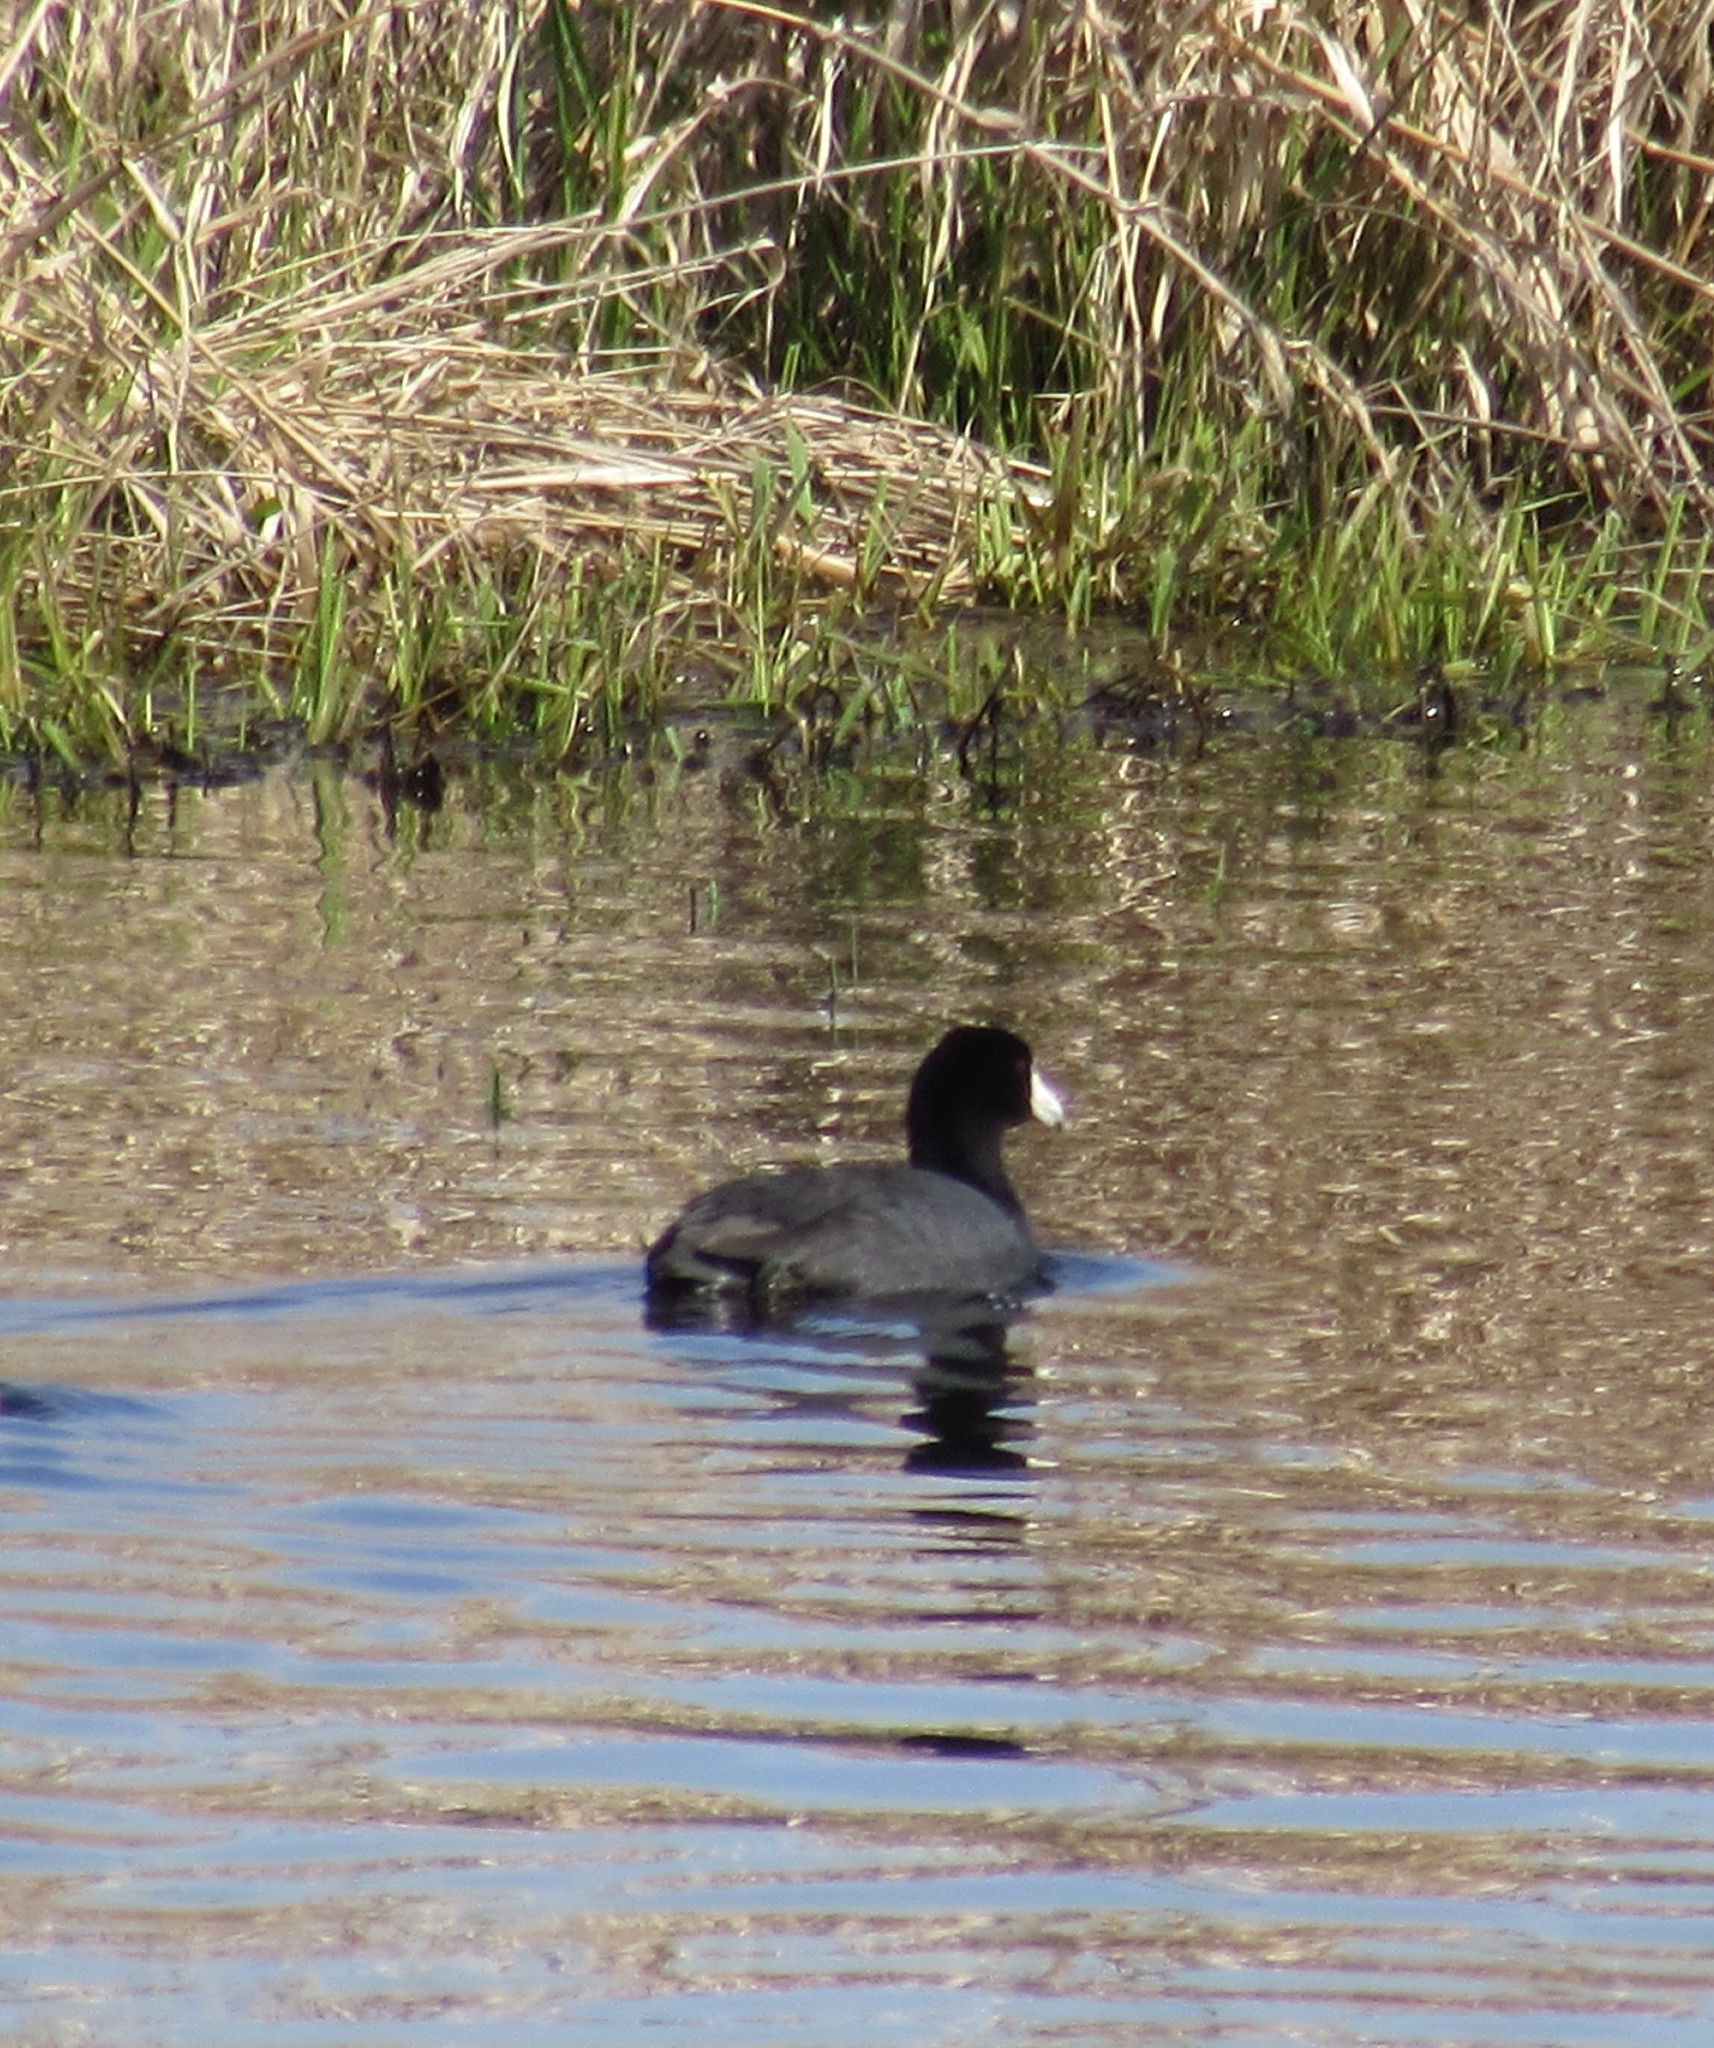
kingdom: Animalia
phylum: Chordata
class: Aves
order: Gruiformes
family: Rallidae
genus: Fulica
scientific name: Fulica americana
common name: American coot
